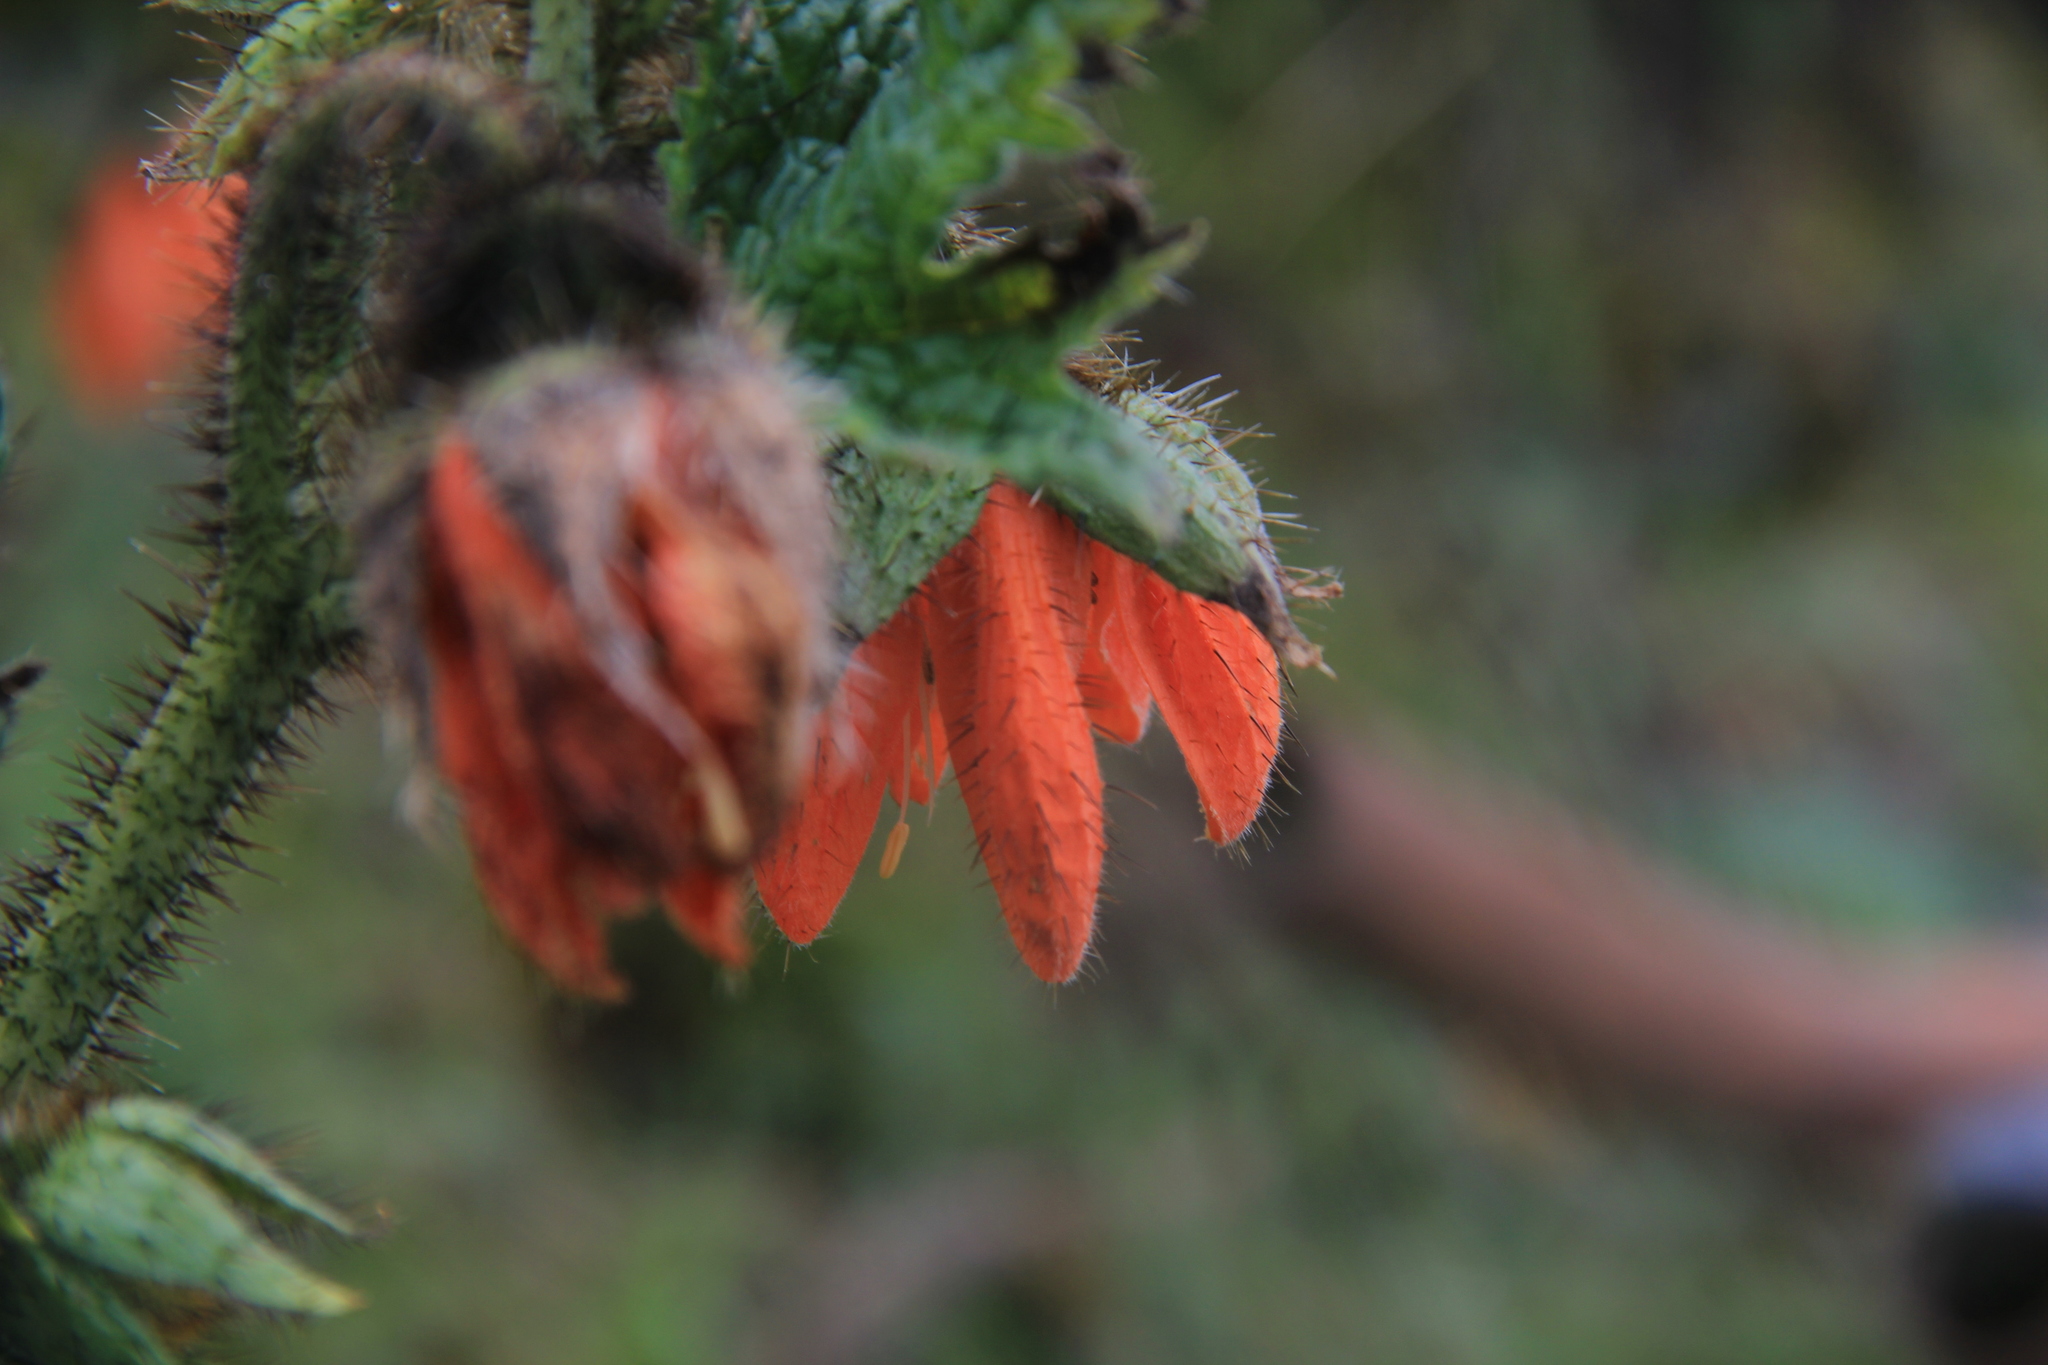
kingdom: Plantae
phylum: Tracheophyta
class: Magnoliopsida
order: Cornales
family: Loasaceae
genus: Nasa
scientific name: Nasa ranunculifolia
